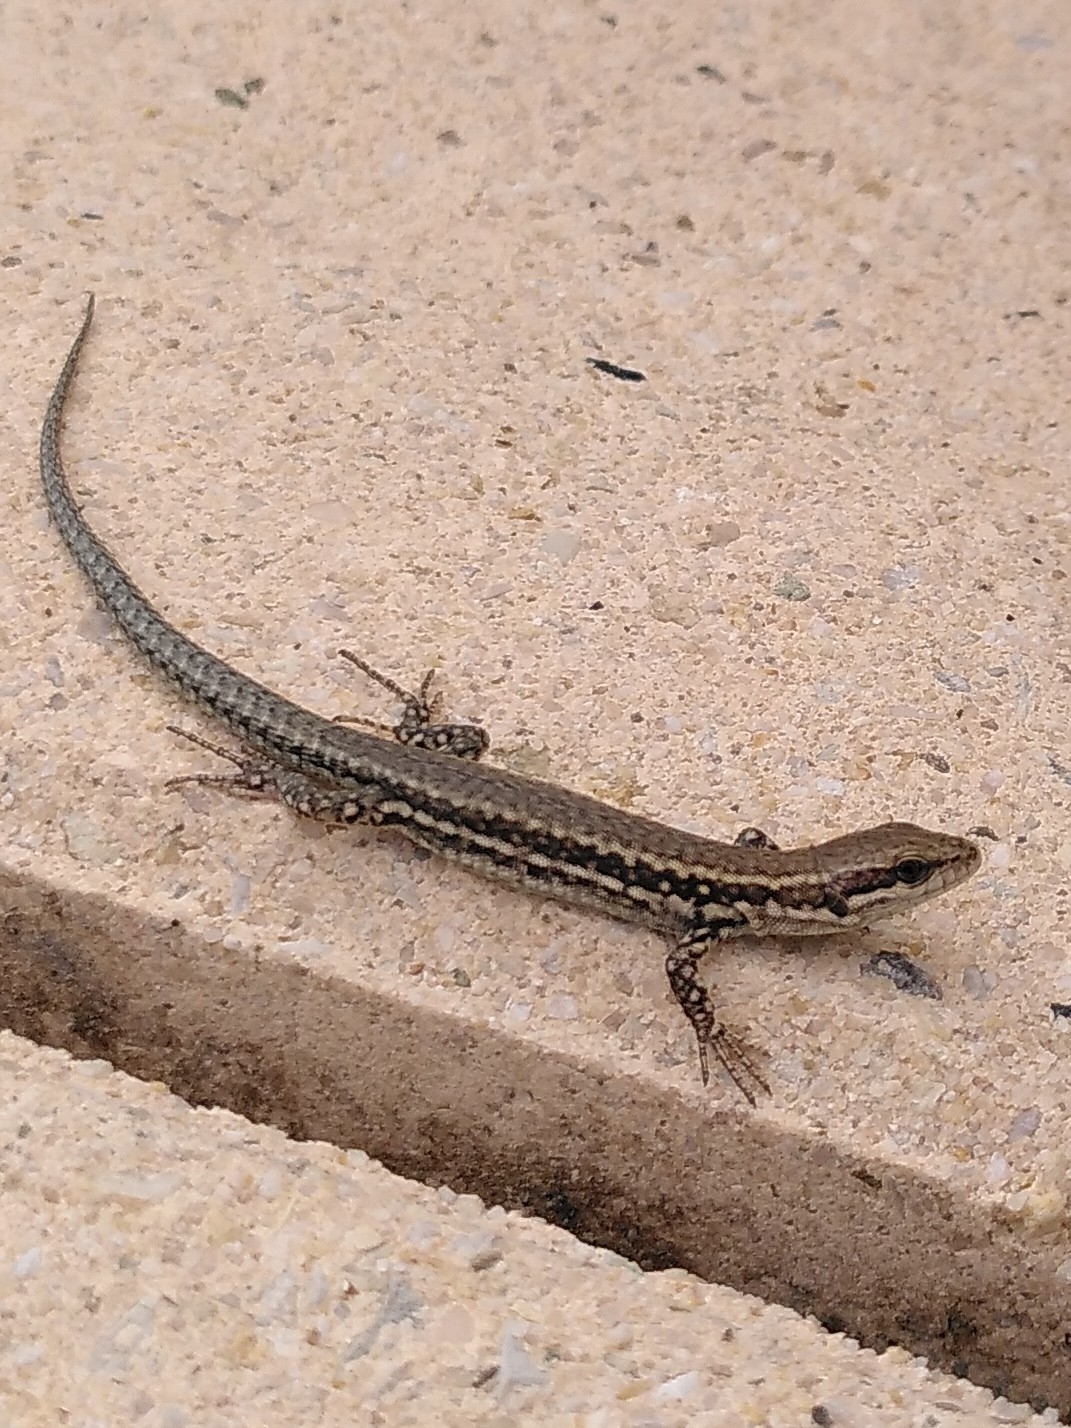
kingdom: Animalia
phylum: Chordata
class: Squamata
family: Lacertidae
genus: Podarcis
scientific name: Podarcis muralis
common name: Common wall lizard
